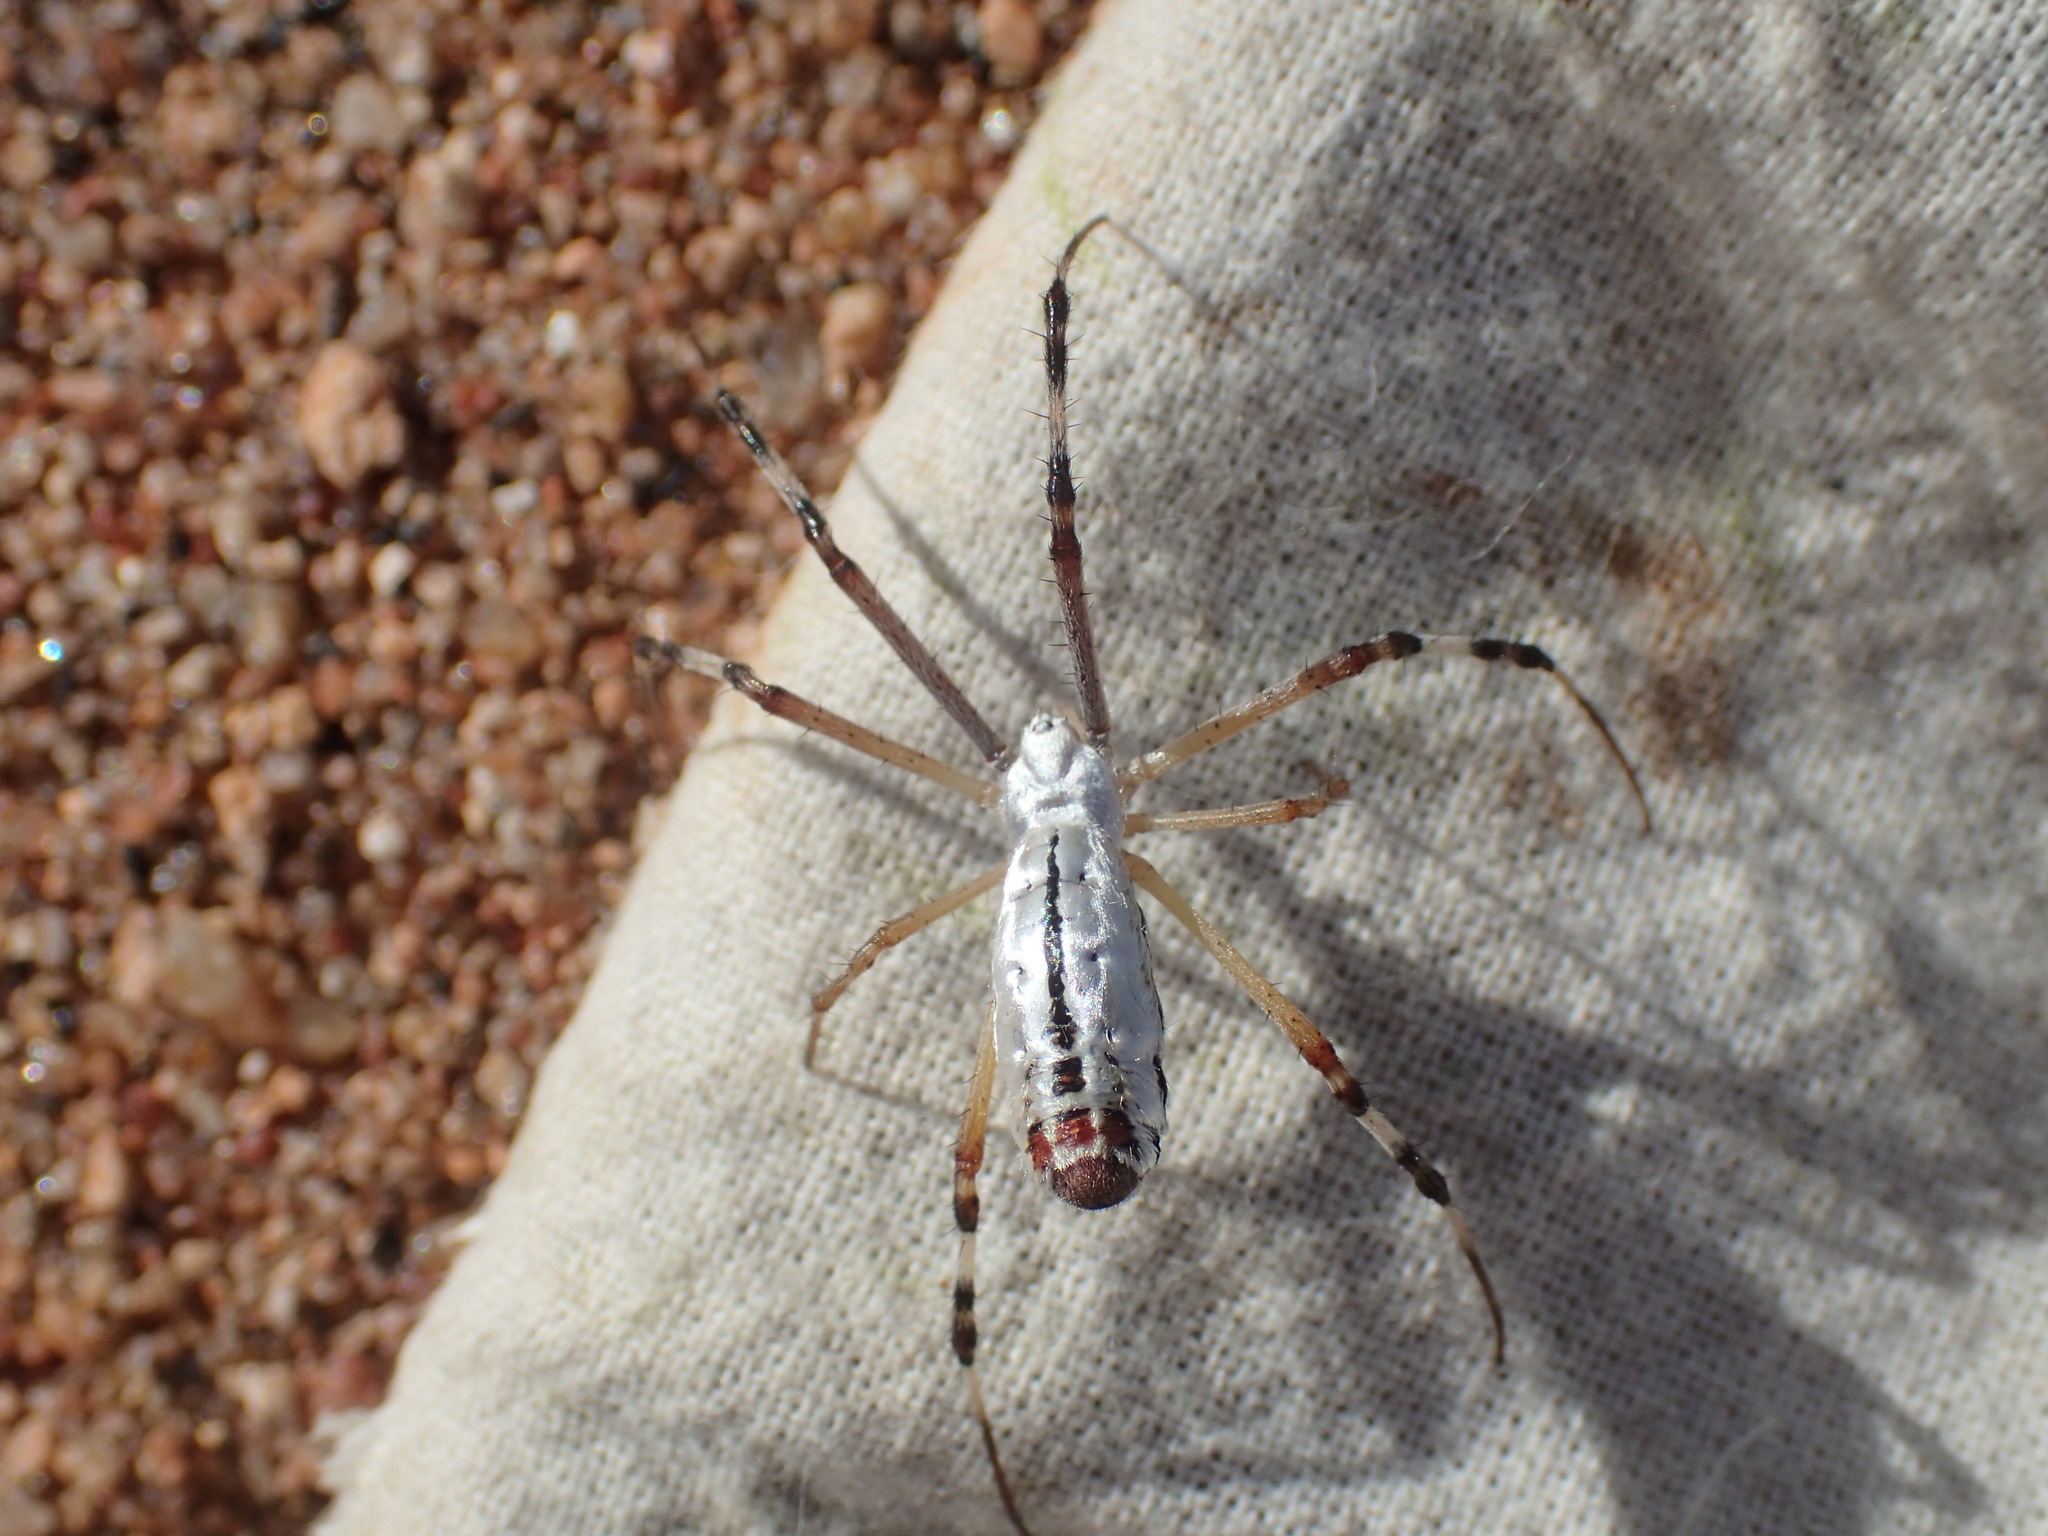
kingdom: Animalia
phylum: Arthropoda
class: Arachnida
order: Araneae
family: Araneidae
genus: Argiope
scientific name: Argiope protensa
